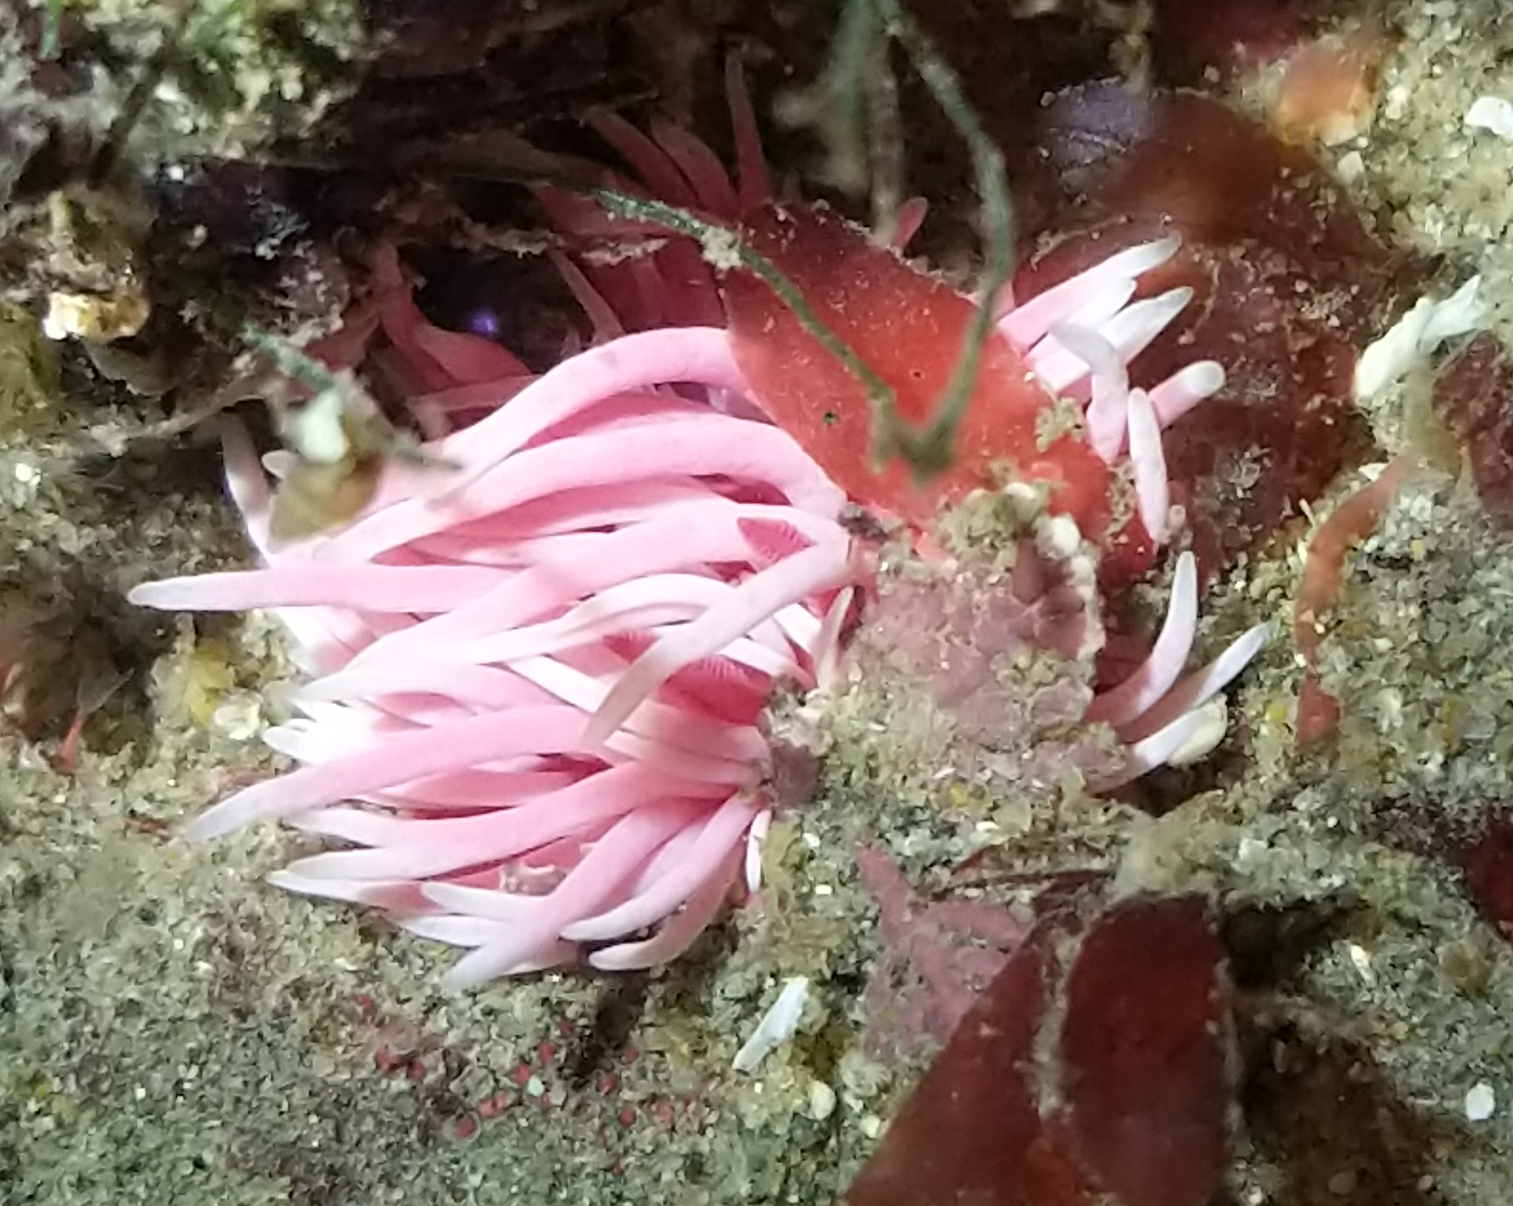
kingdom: Animalia
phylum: Mollusca
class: Gastropoda
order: Nudibranchia
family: Goniodorididae
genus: Okenia
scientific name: Okenia
